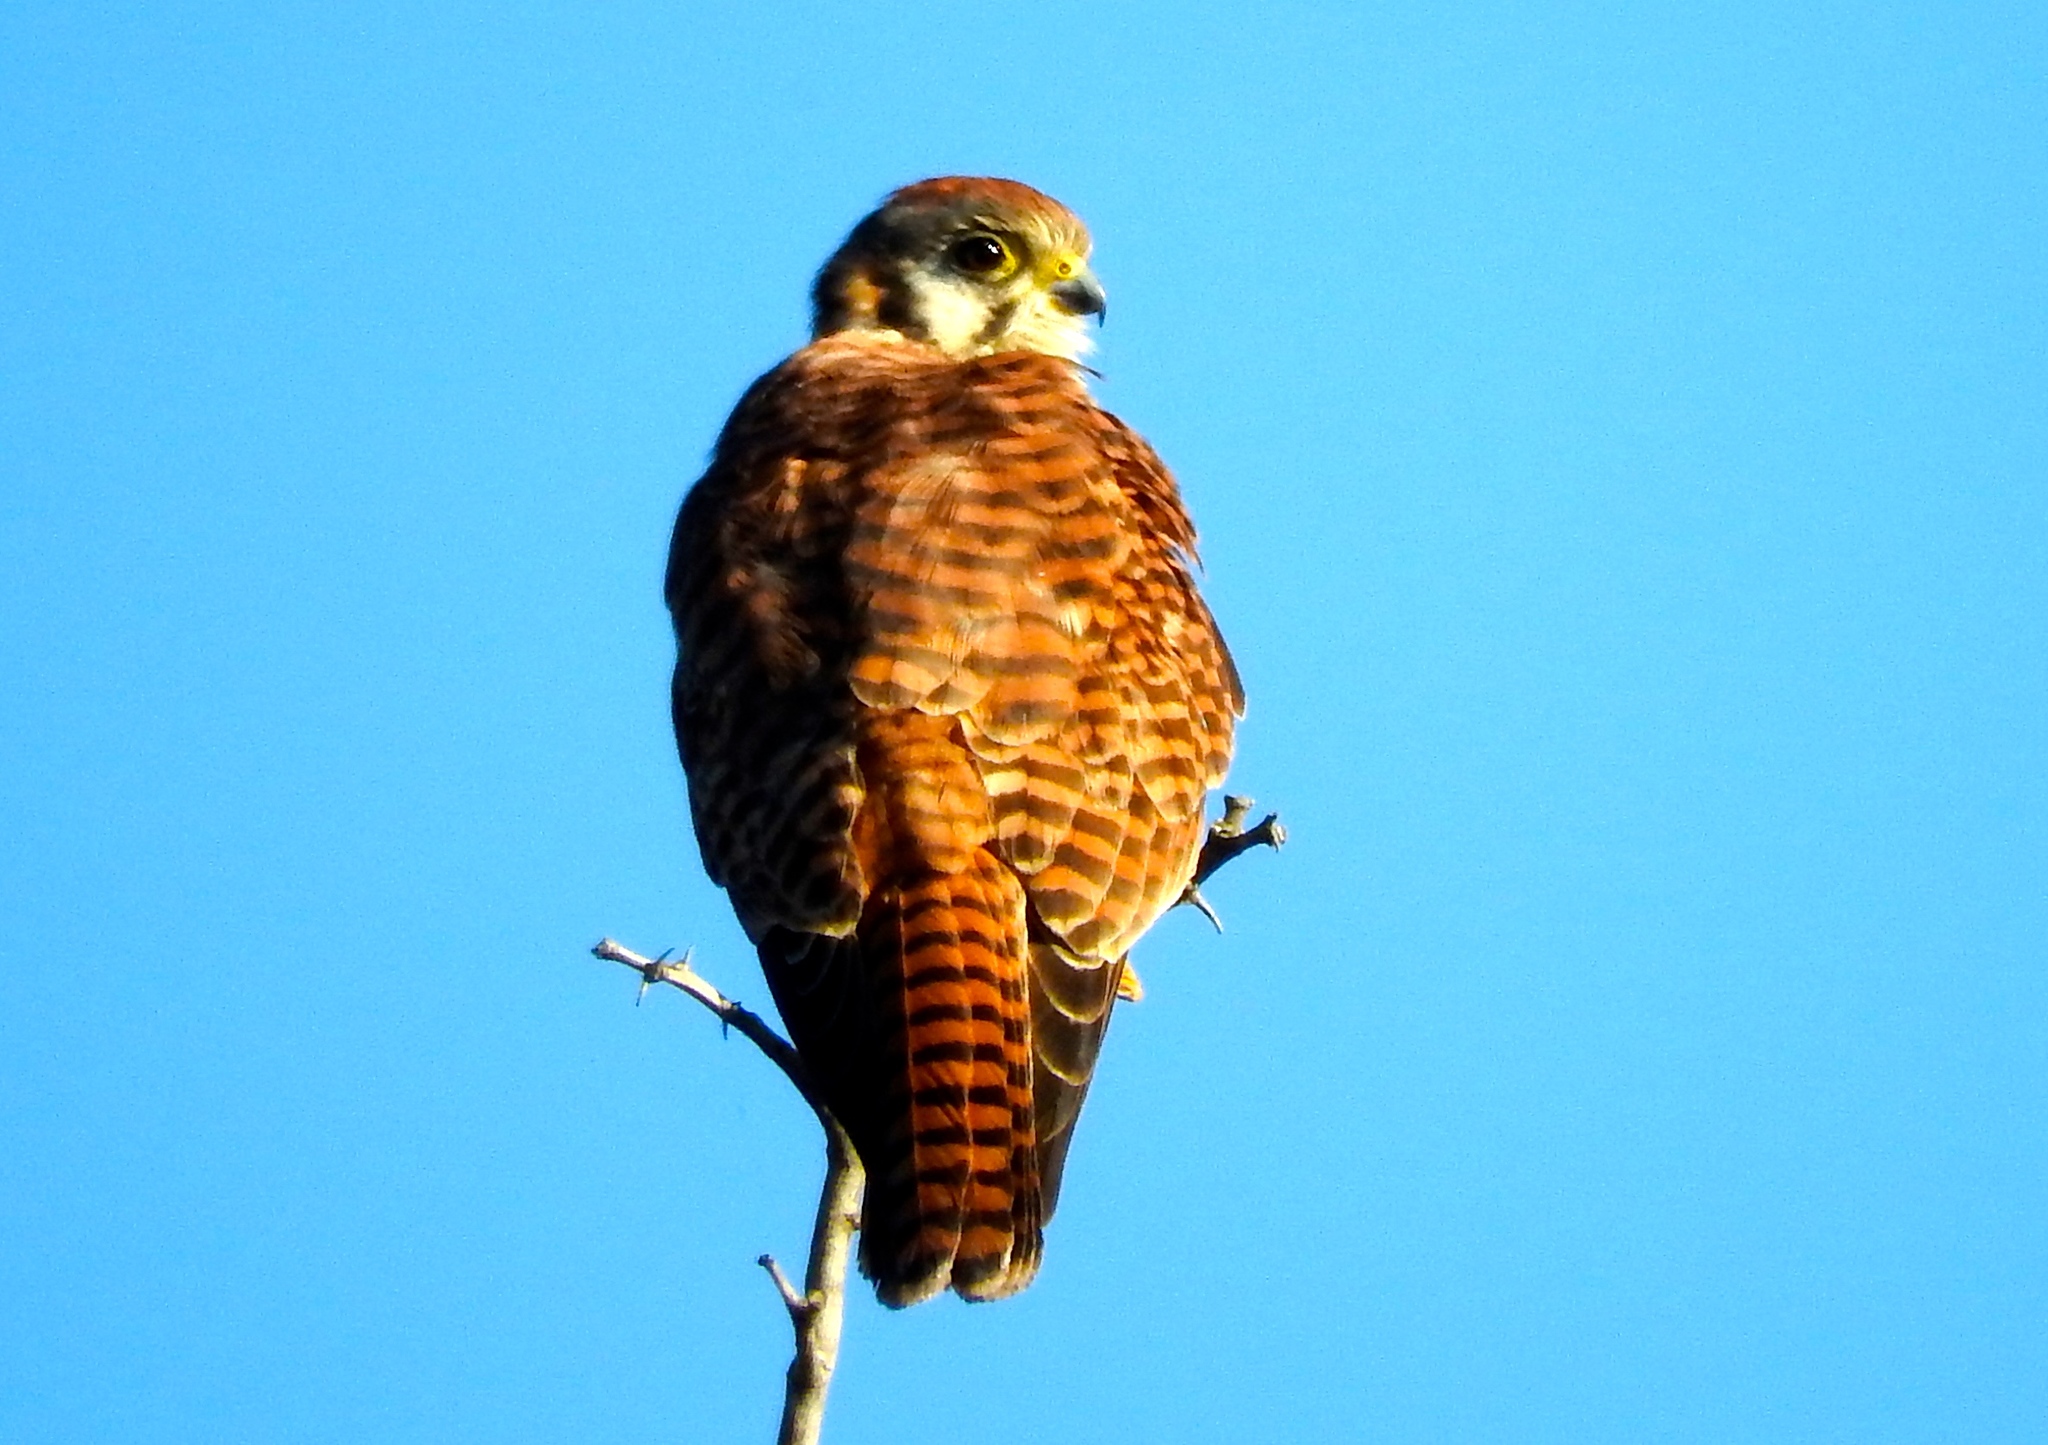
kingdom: Animalia
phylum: Chordata
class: Aves
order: Falconiformes
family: Falconidae
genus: Falco
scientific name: Falco sparverius
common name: American kestrel
